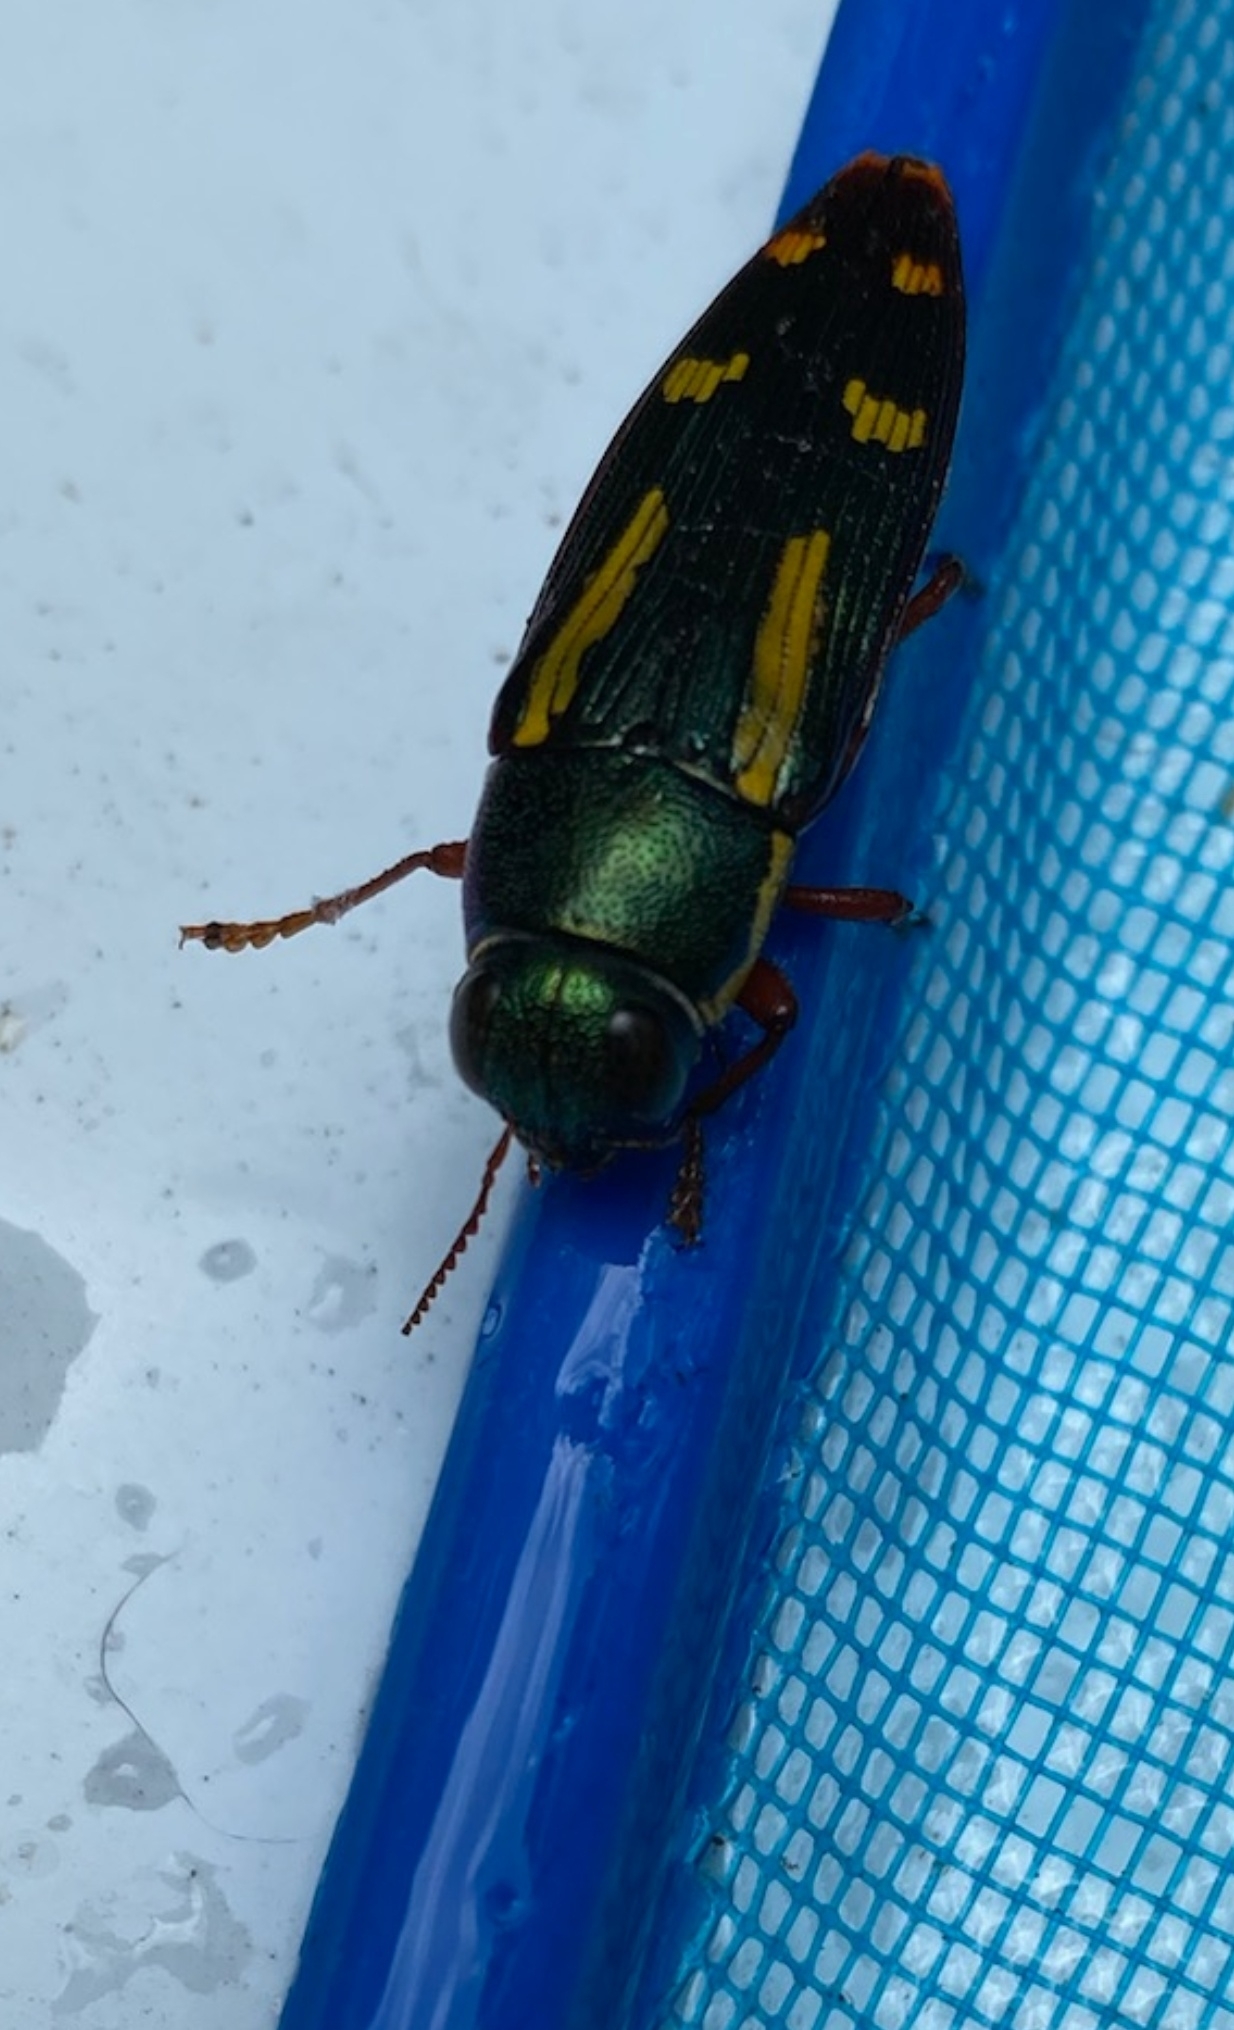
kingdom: Animalia
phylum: Arthropoda
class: Insecta
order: Coleoptera
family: Buprestidae
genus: Buprestis
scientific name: Buprestis rufipes
